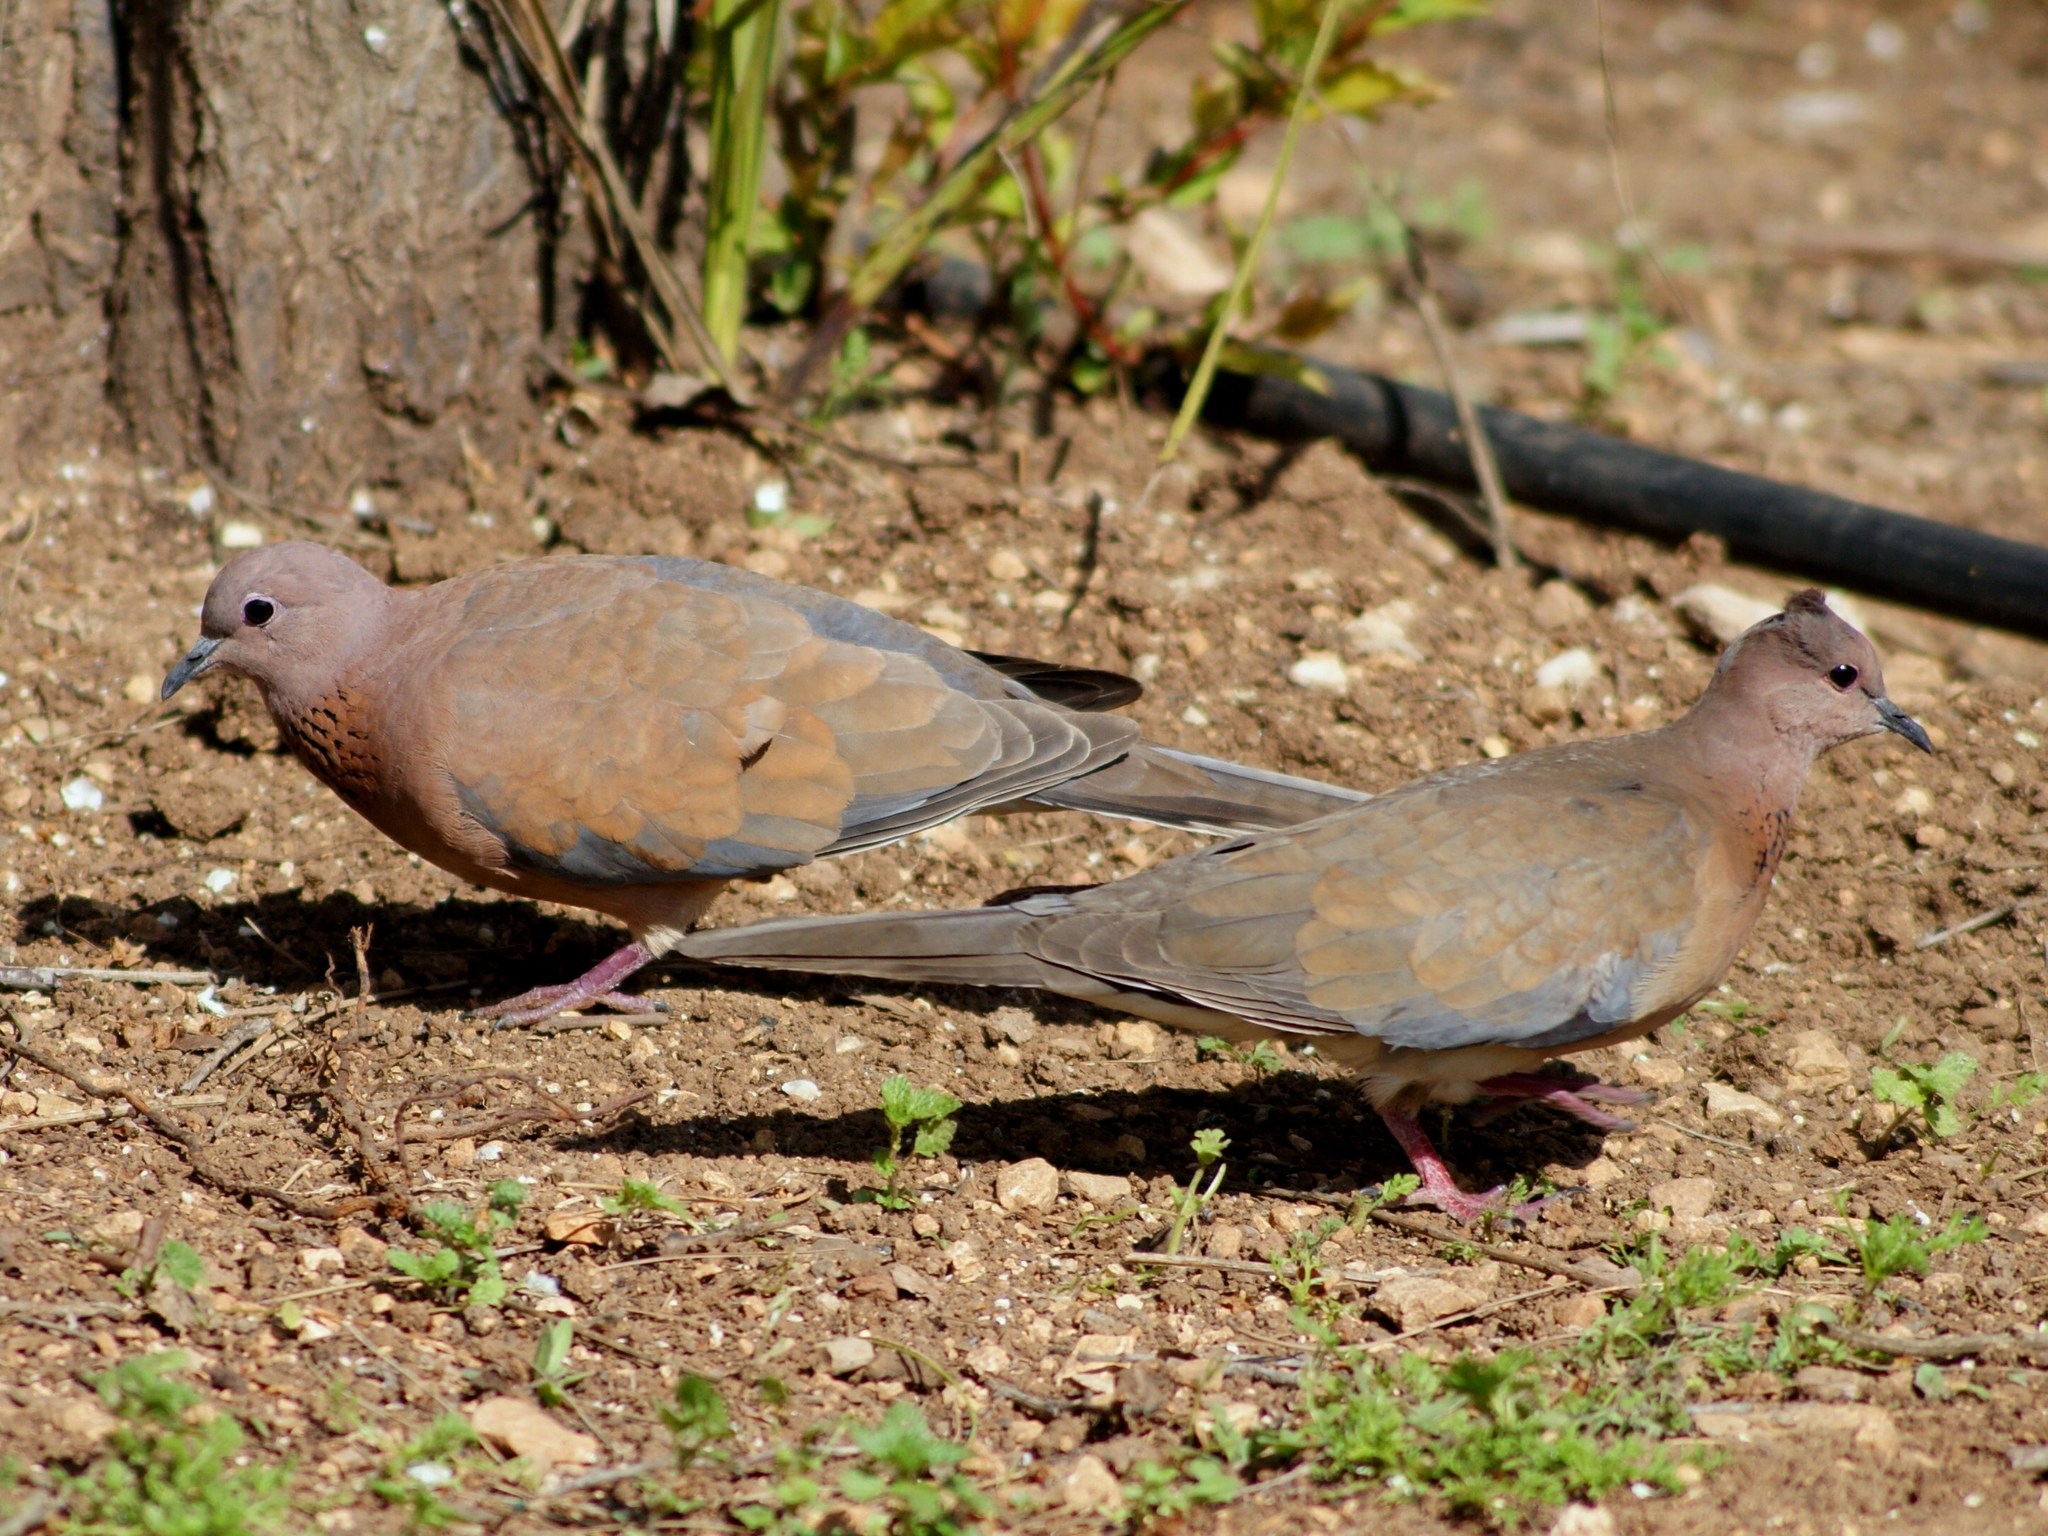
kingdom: Animalia
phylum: Chordata
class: Aves
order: Columbiformes
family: Columbidae
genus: Spilopelia
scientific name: Spilopelia senegalensis
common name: Laughing dove
